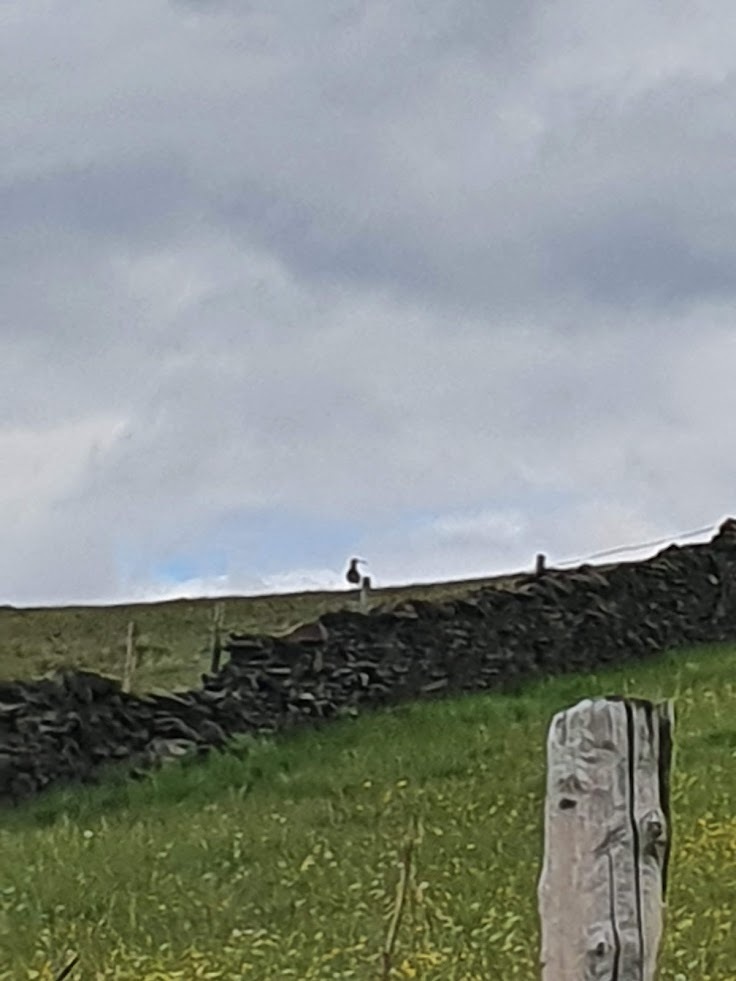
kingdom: Animalia
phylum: Chordata
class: Aves
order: Charadriiformes
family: Scolopacidae
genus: Numenius
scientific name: Numenius arquata
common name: Eurasian curlew
